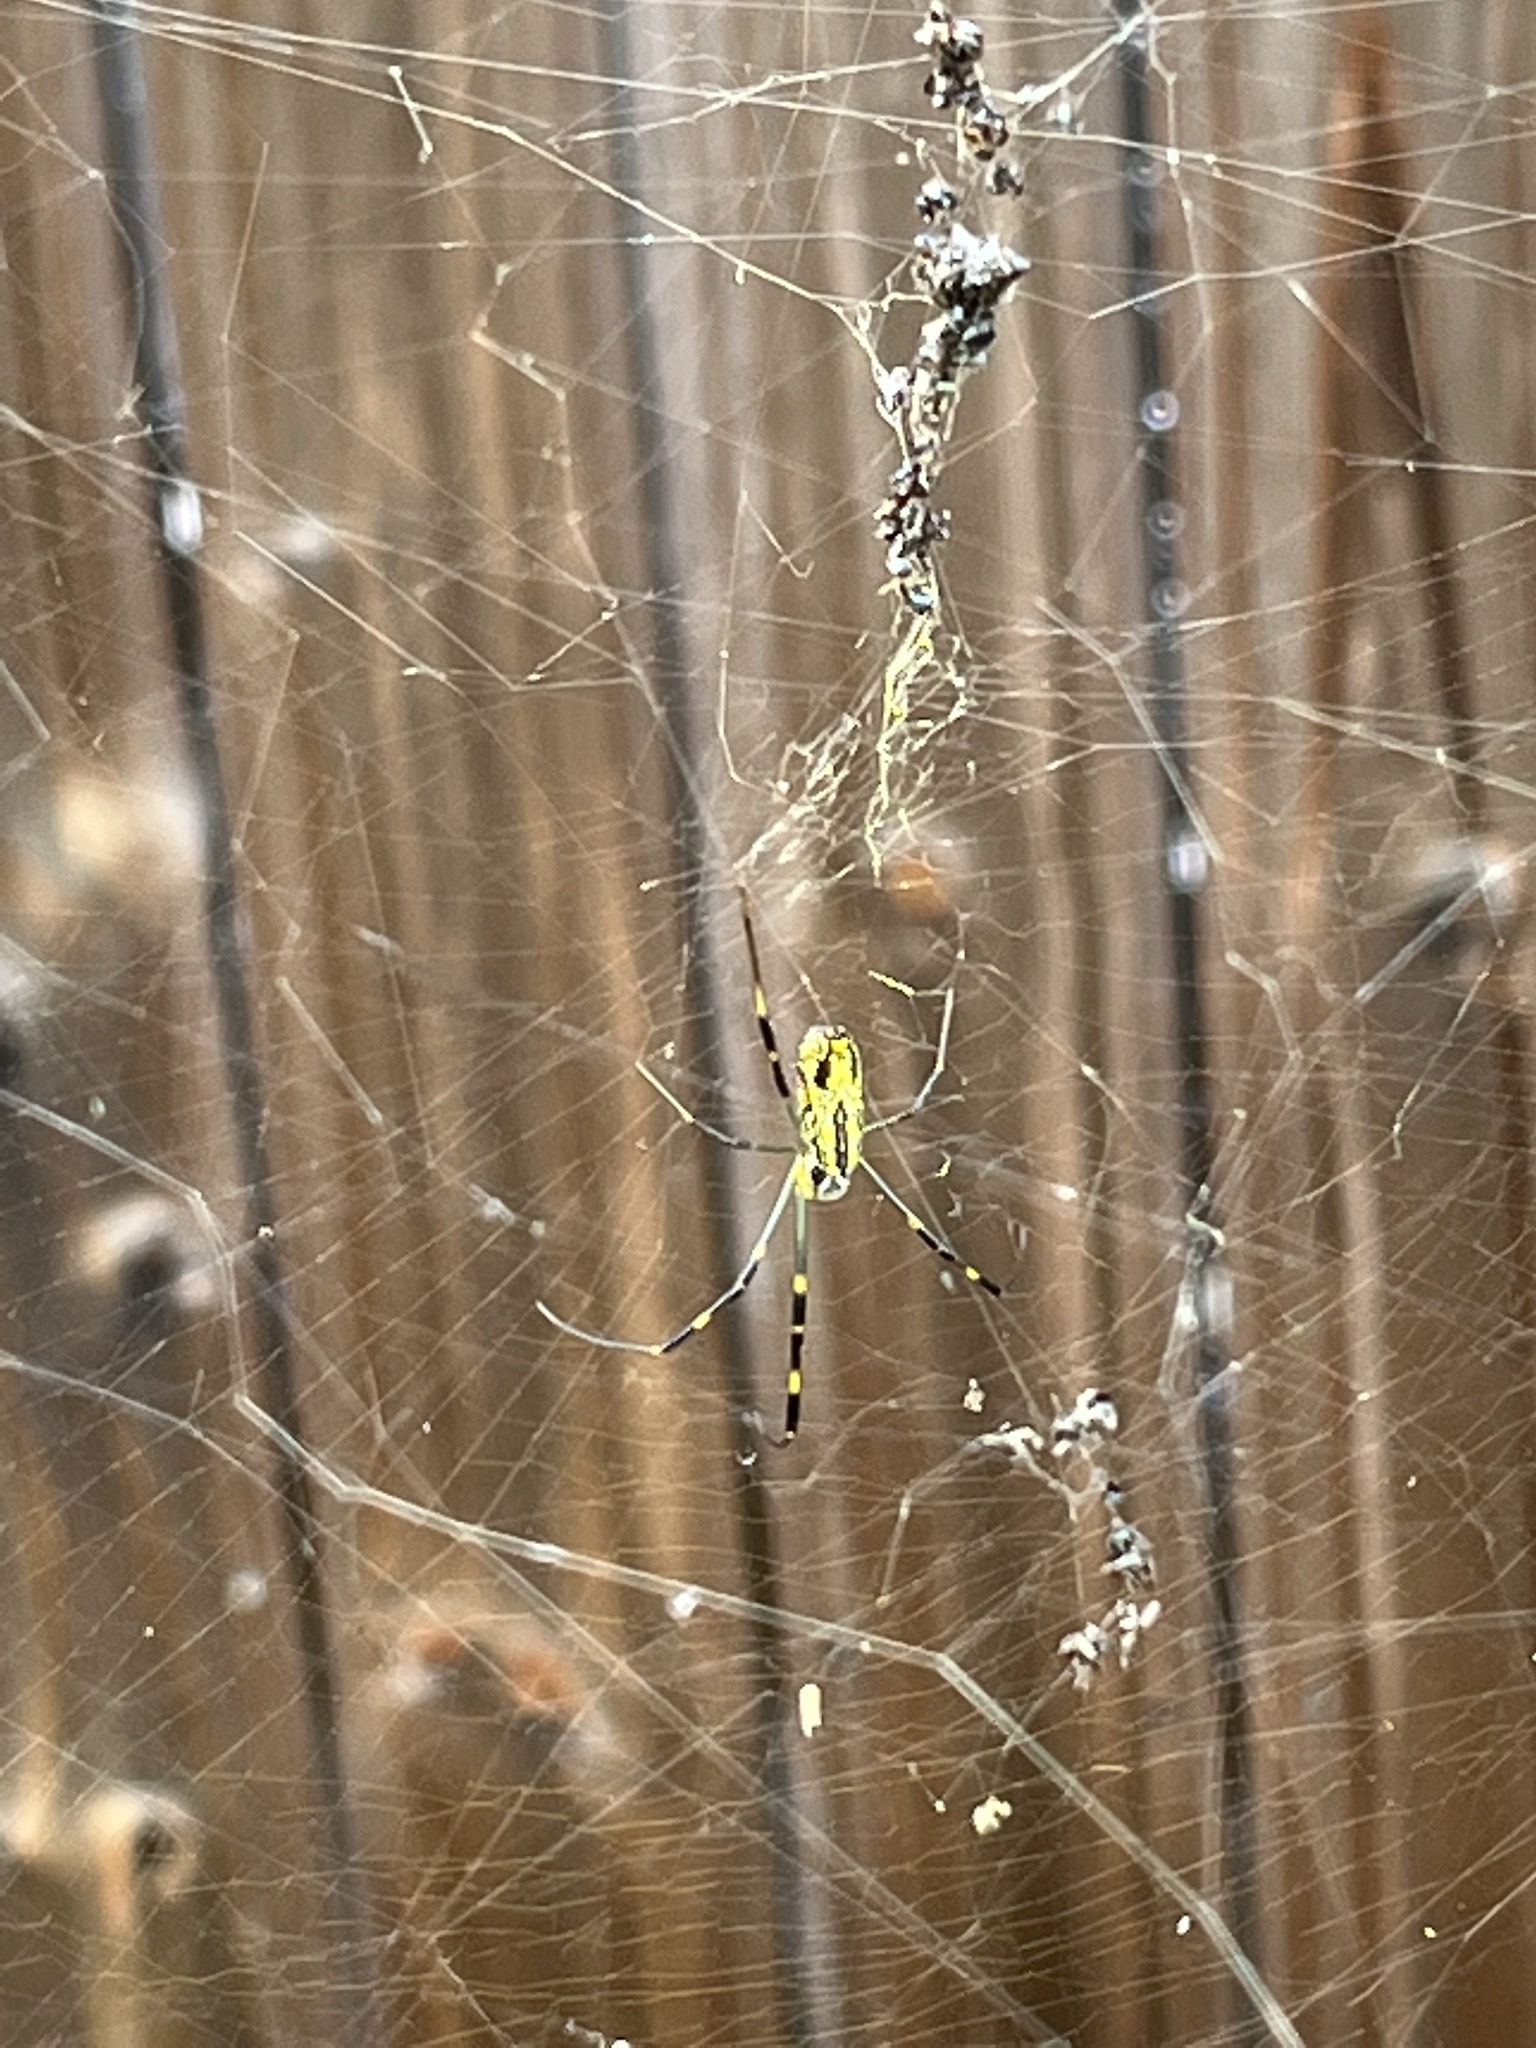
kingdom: Animalia
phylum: Arthropoda
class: Arachnida
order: Araneae
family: Araneidae
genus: Trichonephila
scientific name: Trichonephila clavata
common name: Jorō spider
